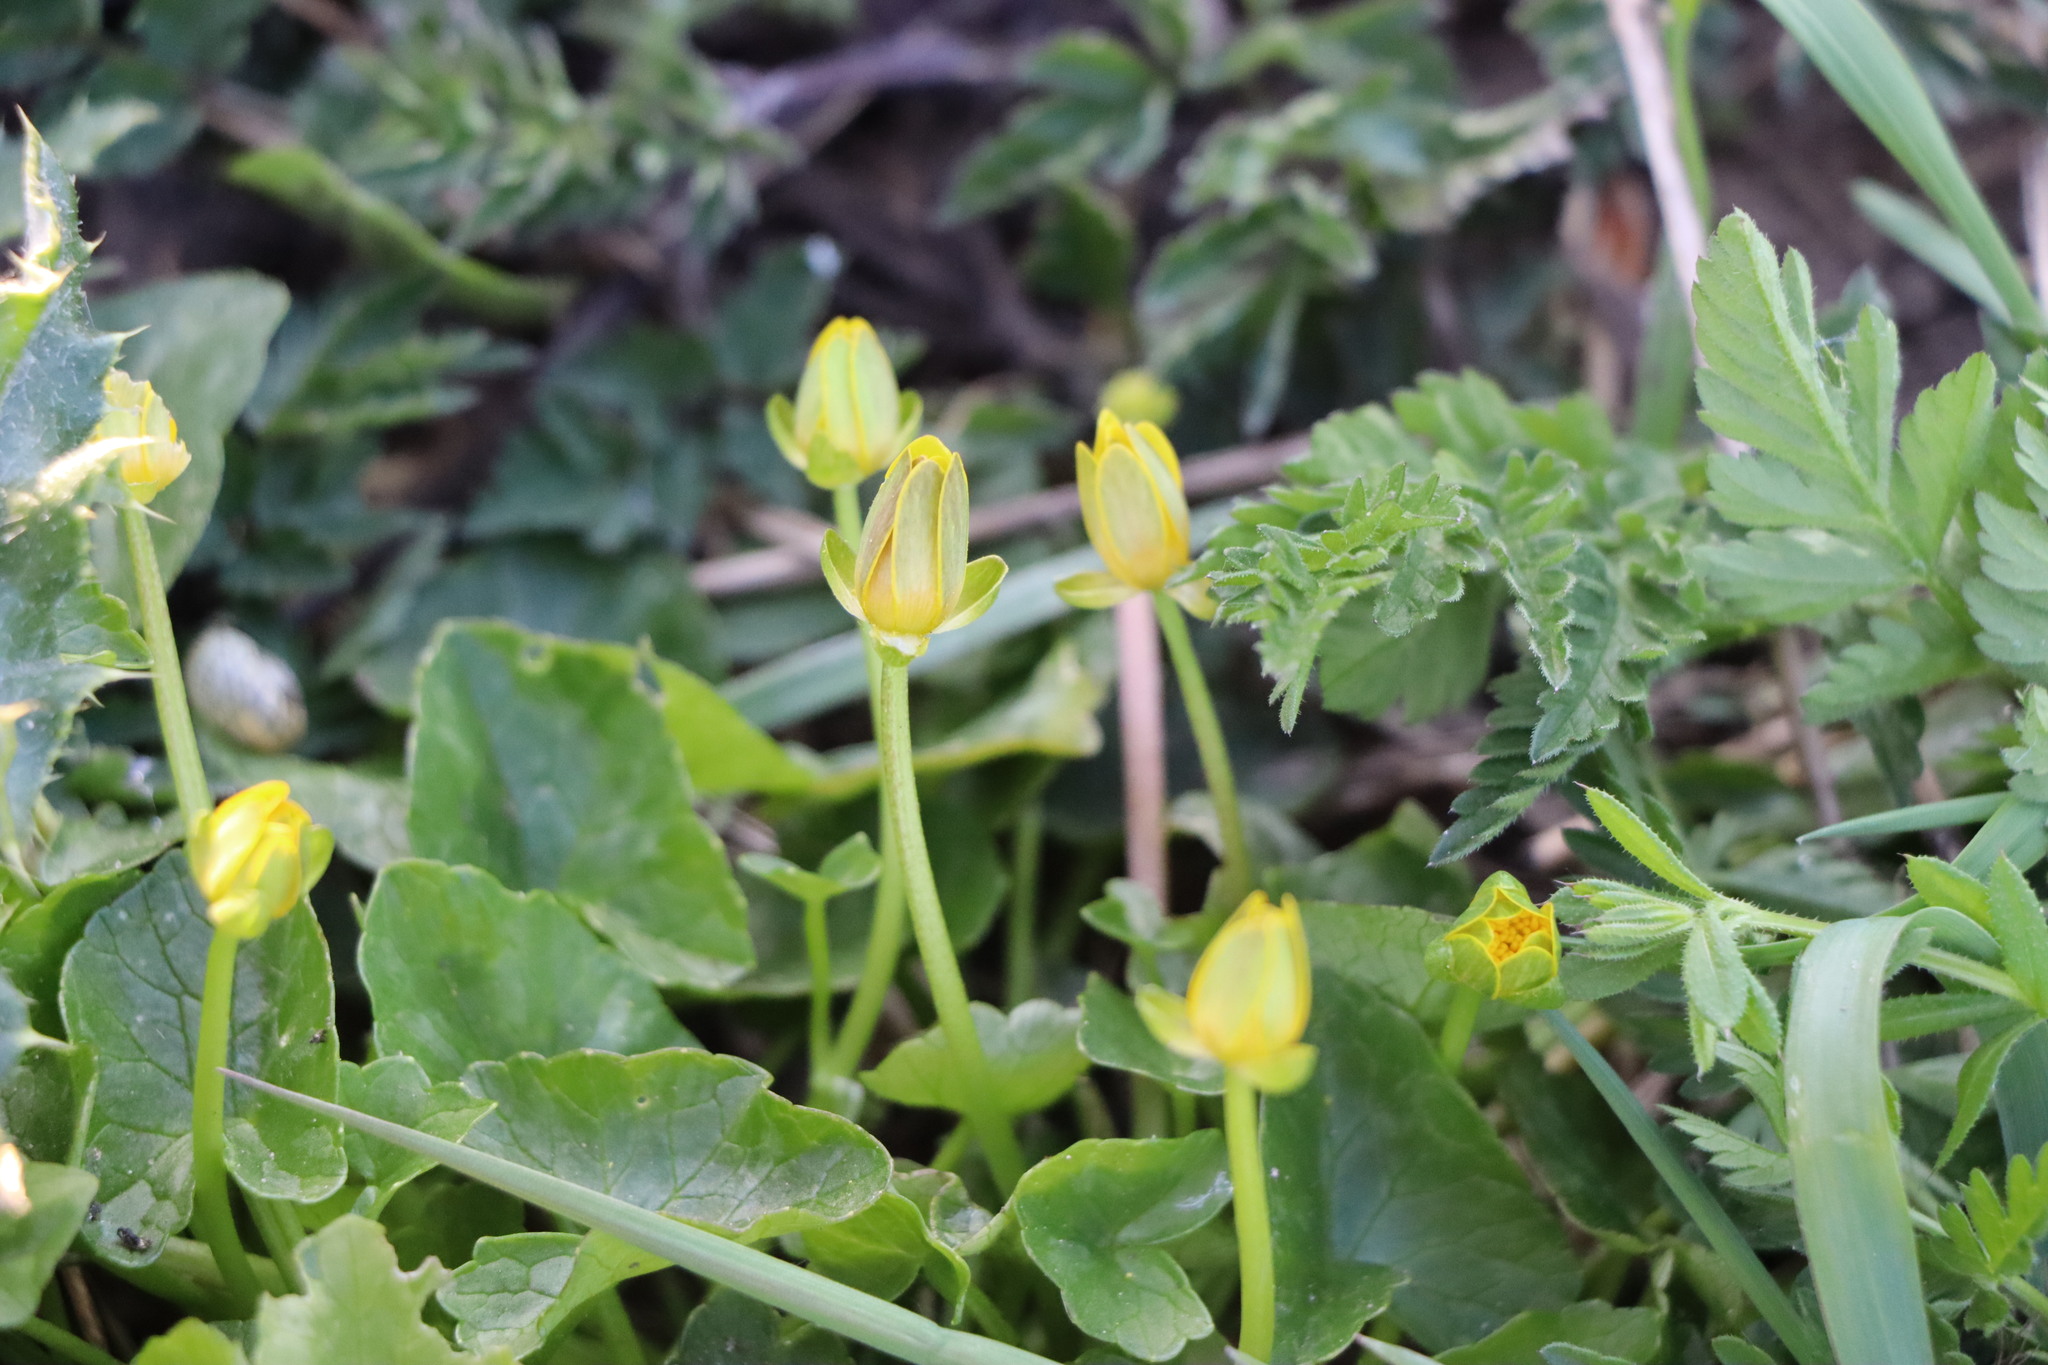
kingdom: Plantae
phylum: Tracheophyta
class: Magnoliopsida
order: Ranunculales
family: Ranunculaceae
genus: Ficaria
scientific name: Ficaria verna
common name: Lesser celandine
